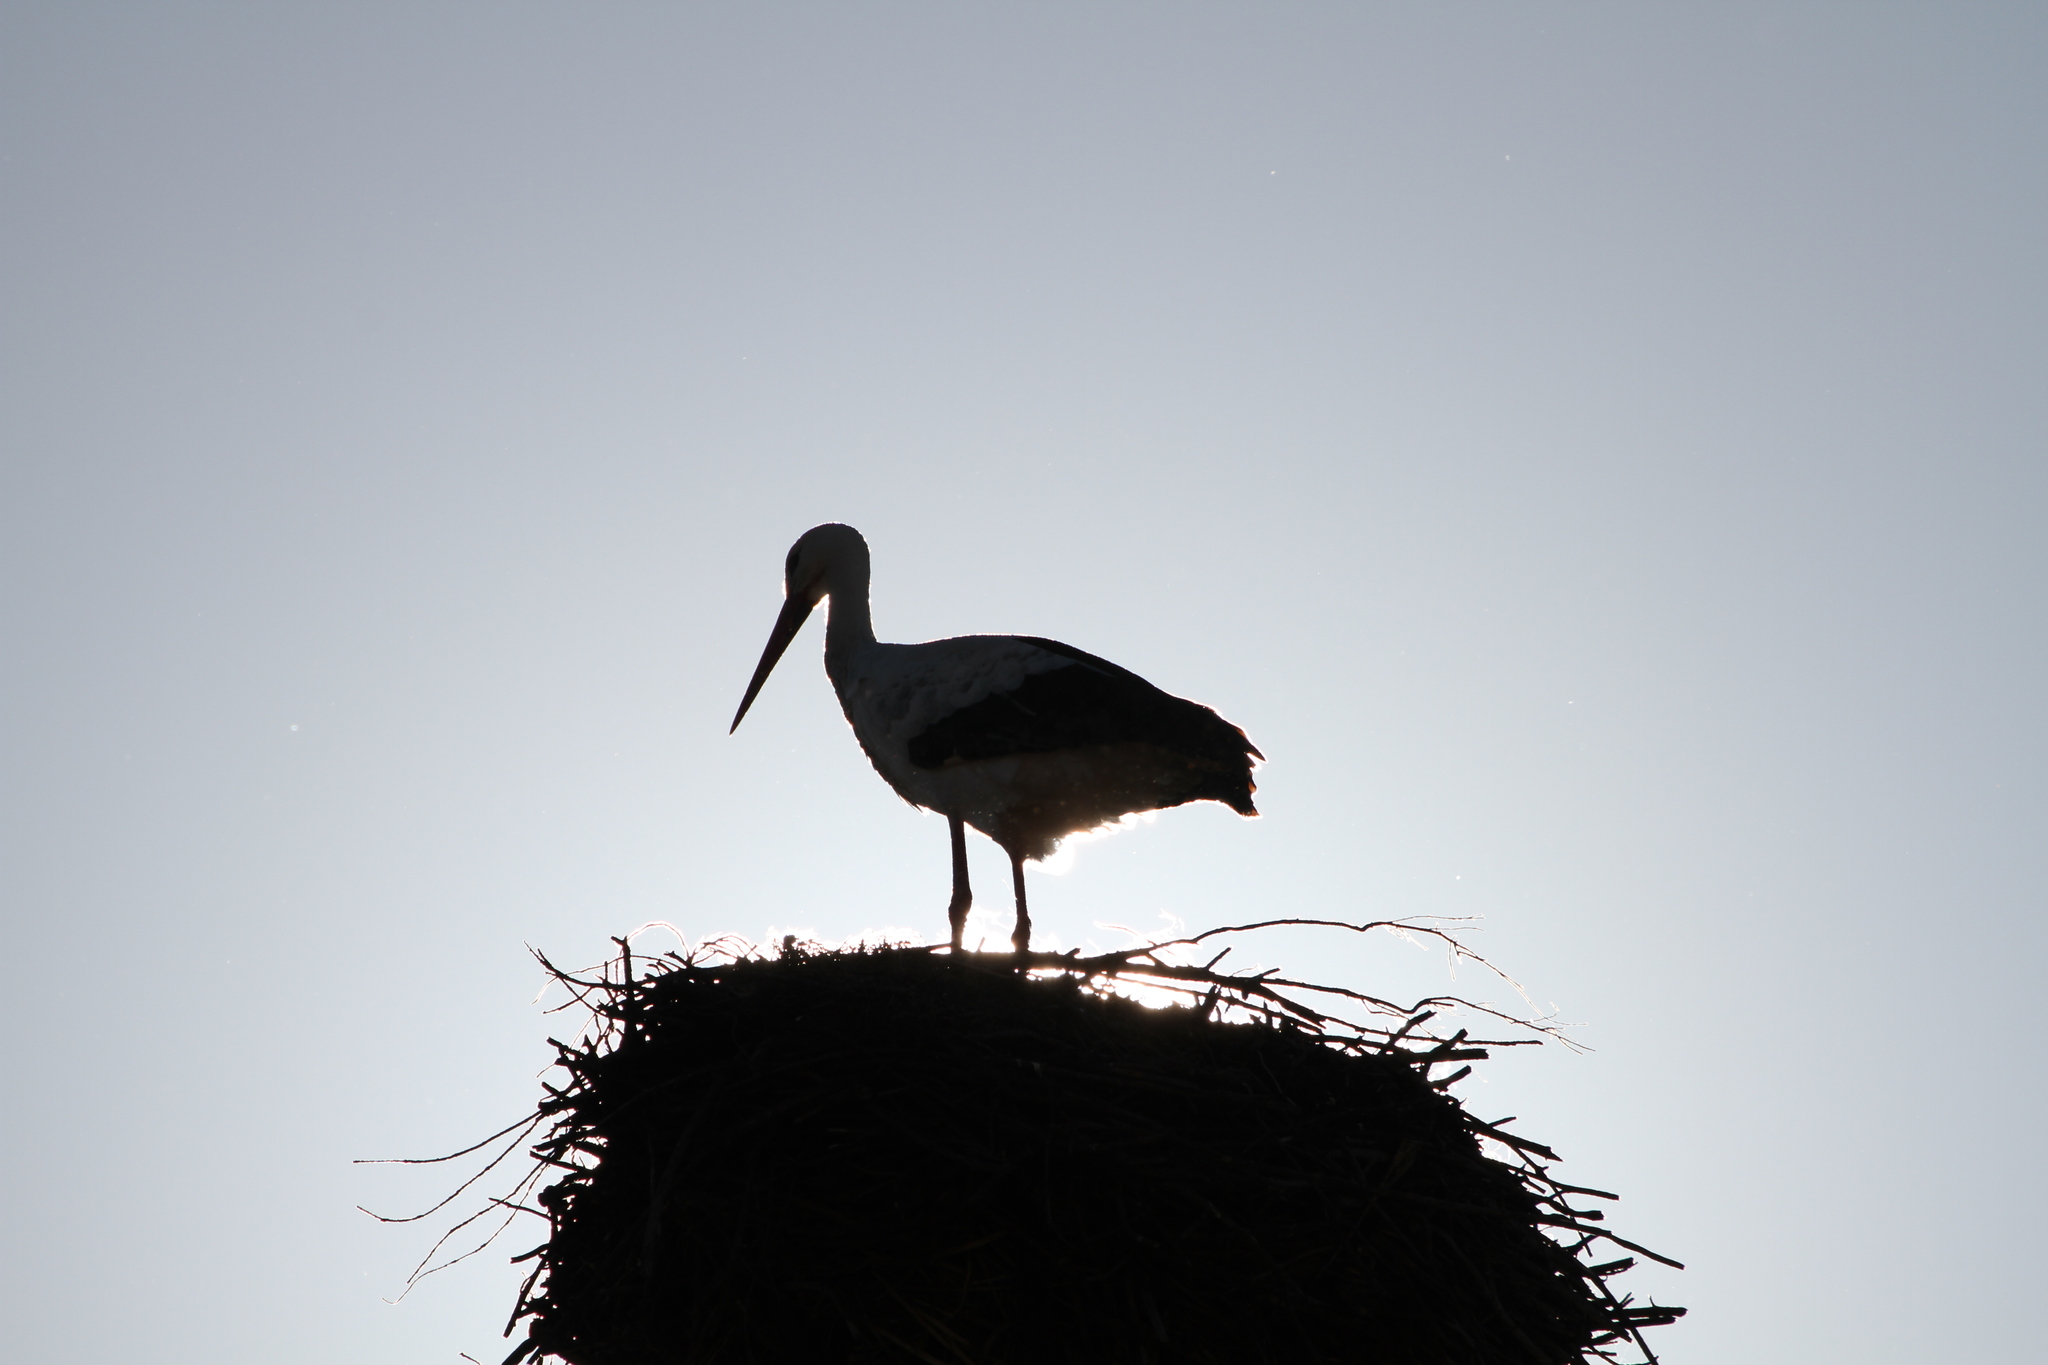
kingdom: Animalia
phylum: Chordata
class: Aves
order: Ciconiiformes
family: Ciconiidae
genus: Ciconia
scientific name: Ciconia ciconia
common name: White stork
